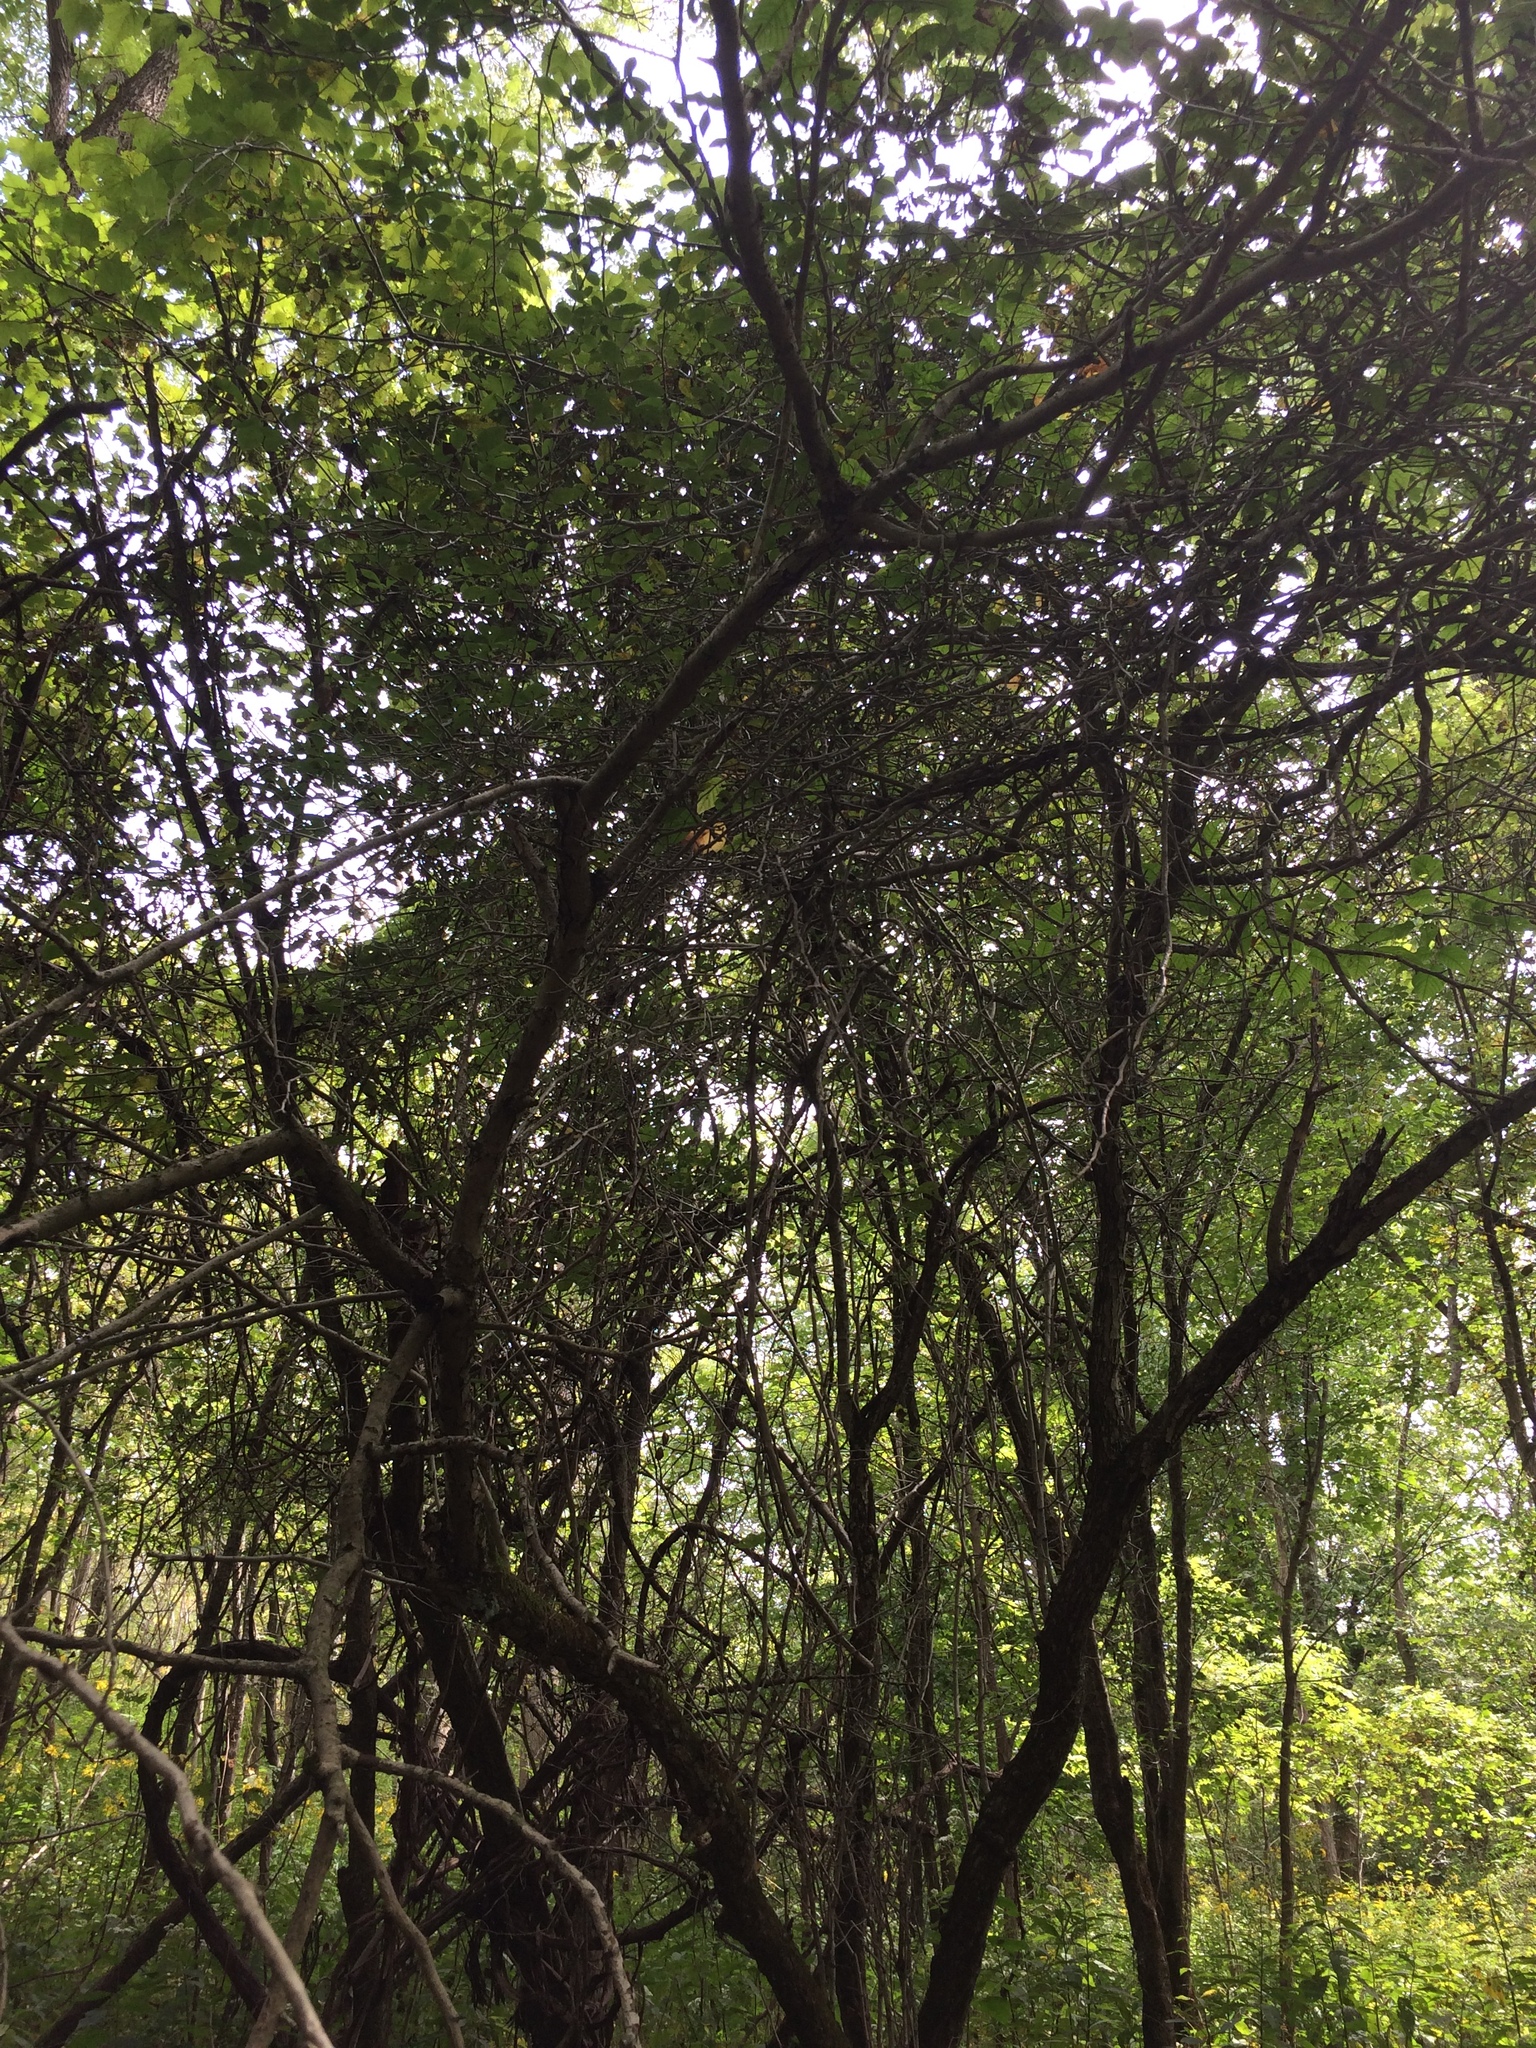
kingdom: Plantae
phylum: Tracheophyta
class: Magnoliopsida
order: Rosales
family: Rosaceae
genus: Crataegus
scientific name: Crataegus crus-galli
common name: Cockspurthorn
